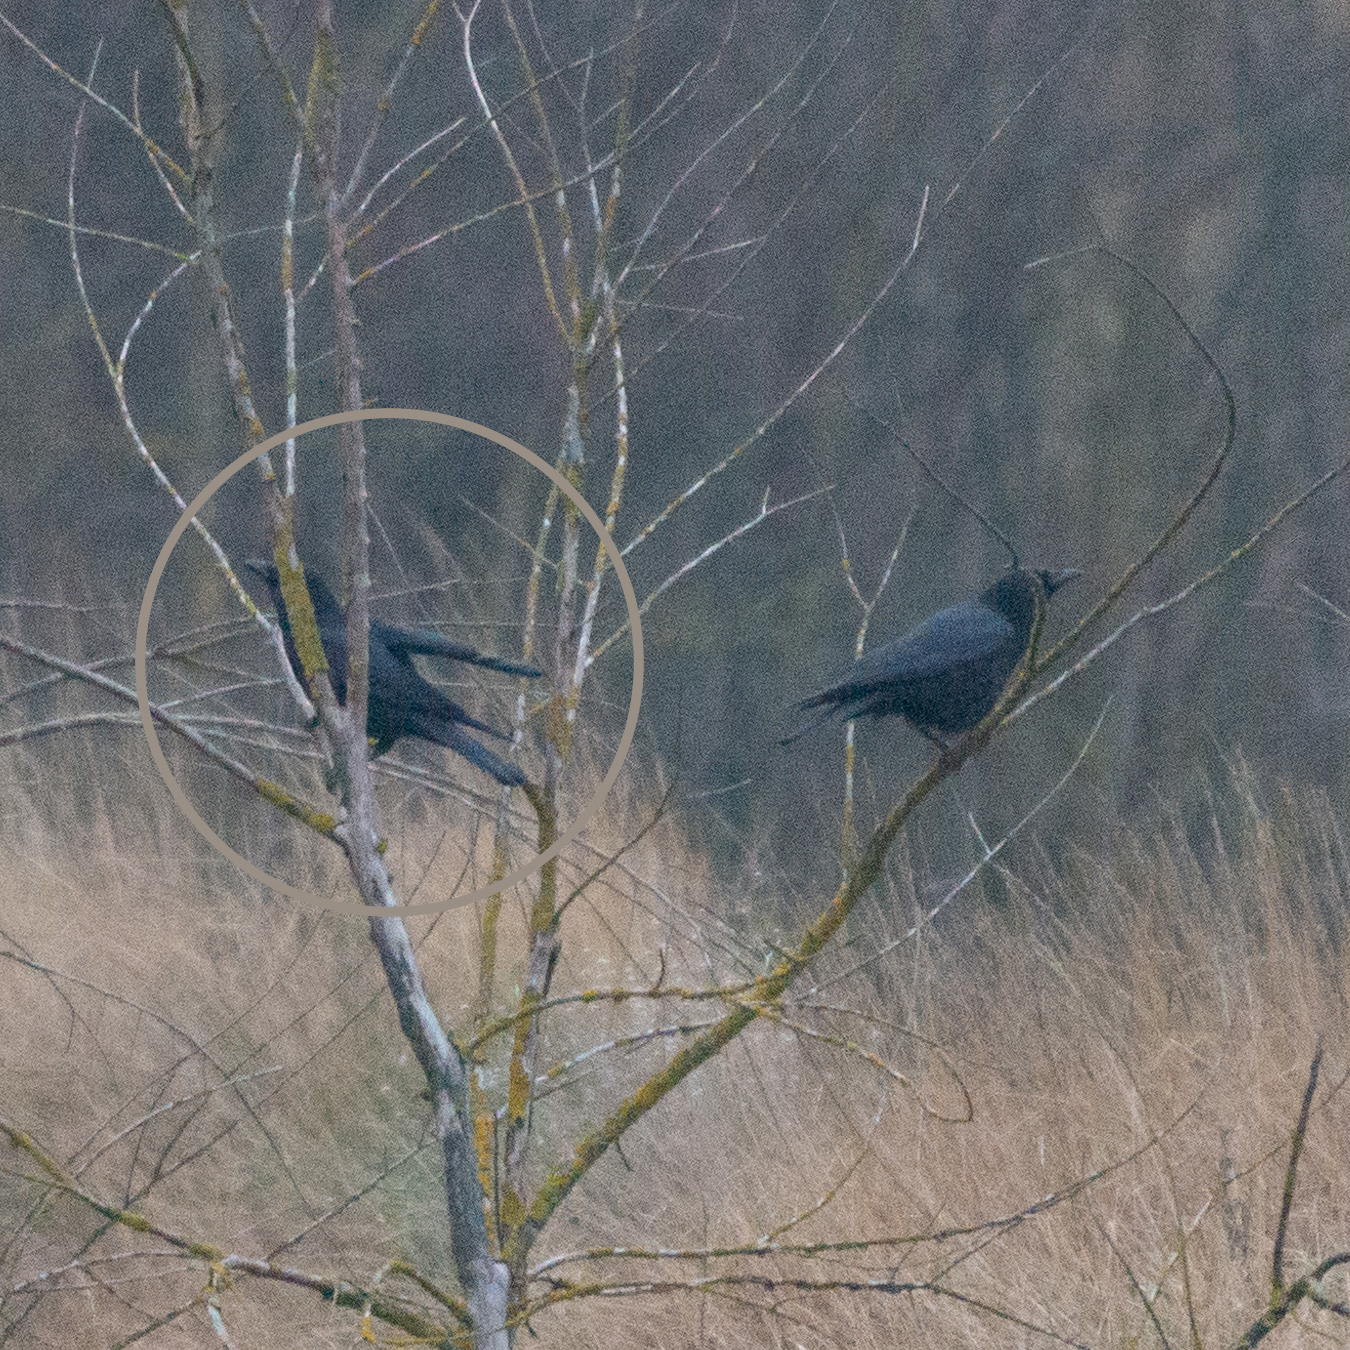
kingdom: Animalia
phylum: Chordata
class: Aves
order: Passeriformes
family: Corvidae
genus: Corvus
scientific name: Corvus corone
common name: Carrion crow
